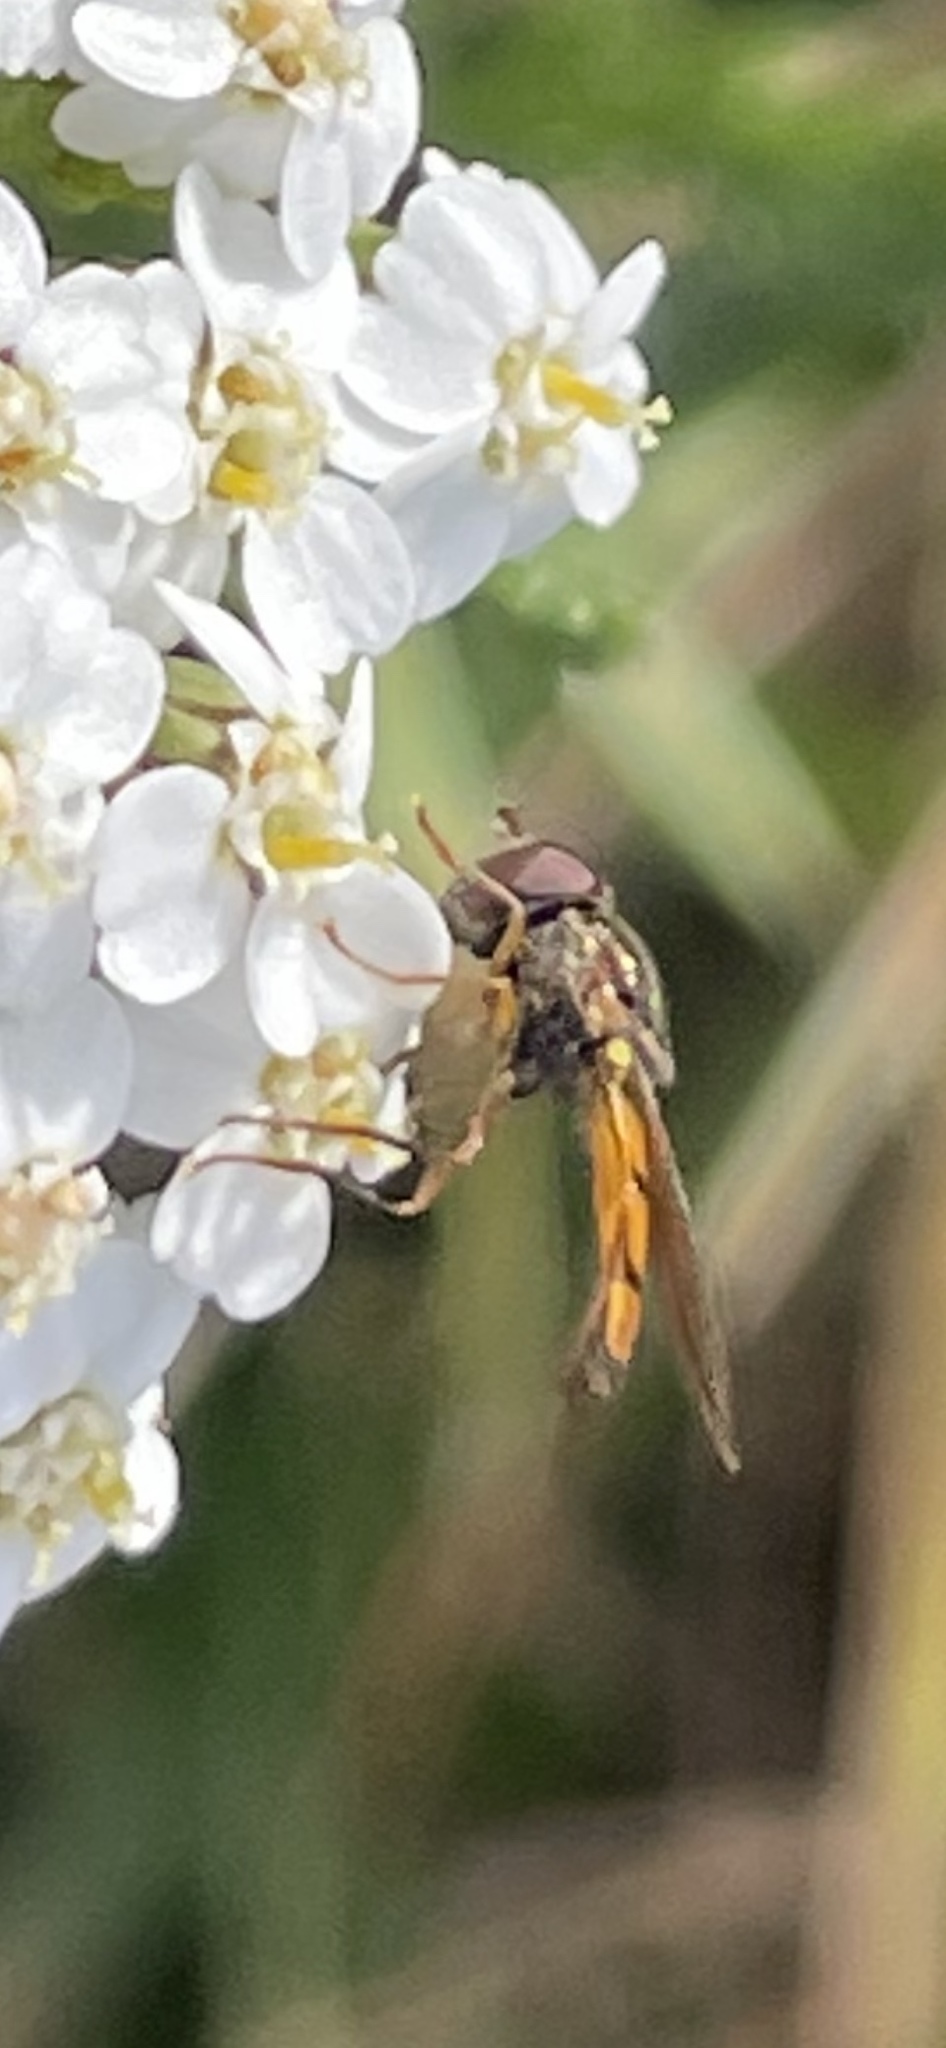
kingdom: Animalia
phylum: Arthropoda
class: Insecta
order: Diptera
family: Syrphidae
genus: Melanostoma
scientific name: Melanostoma fasciatum
